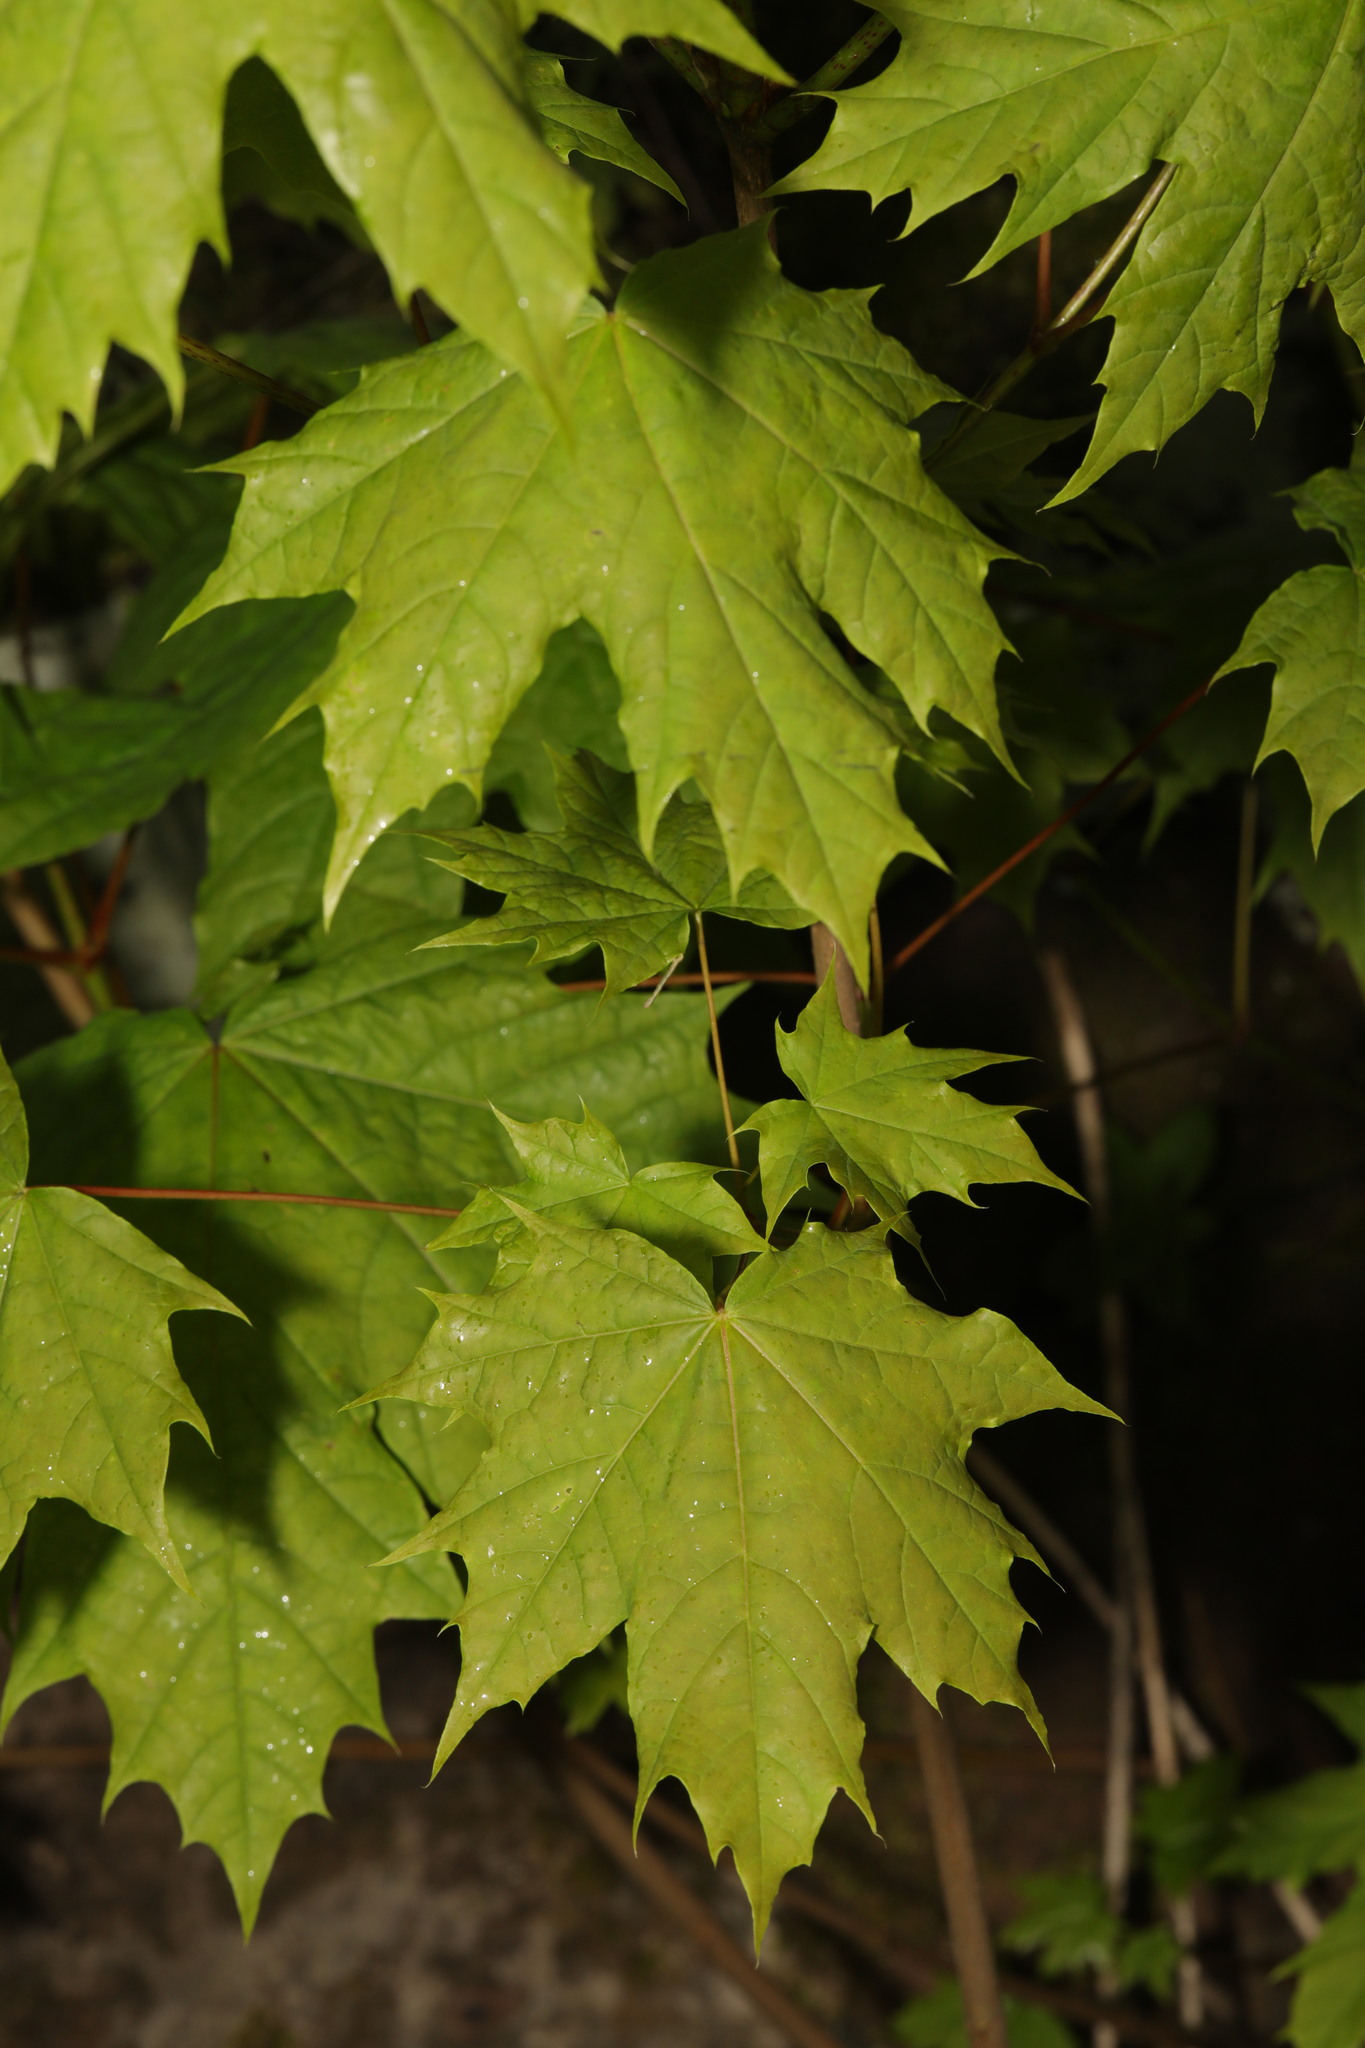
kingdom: Plantae
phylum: Tracheophyta
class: Magnoliopsida
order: Sapindales
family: Sapindaceae
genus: Acer
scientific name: Acer platanoides
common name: Norway maple
